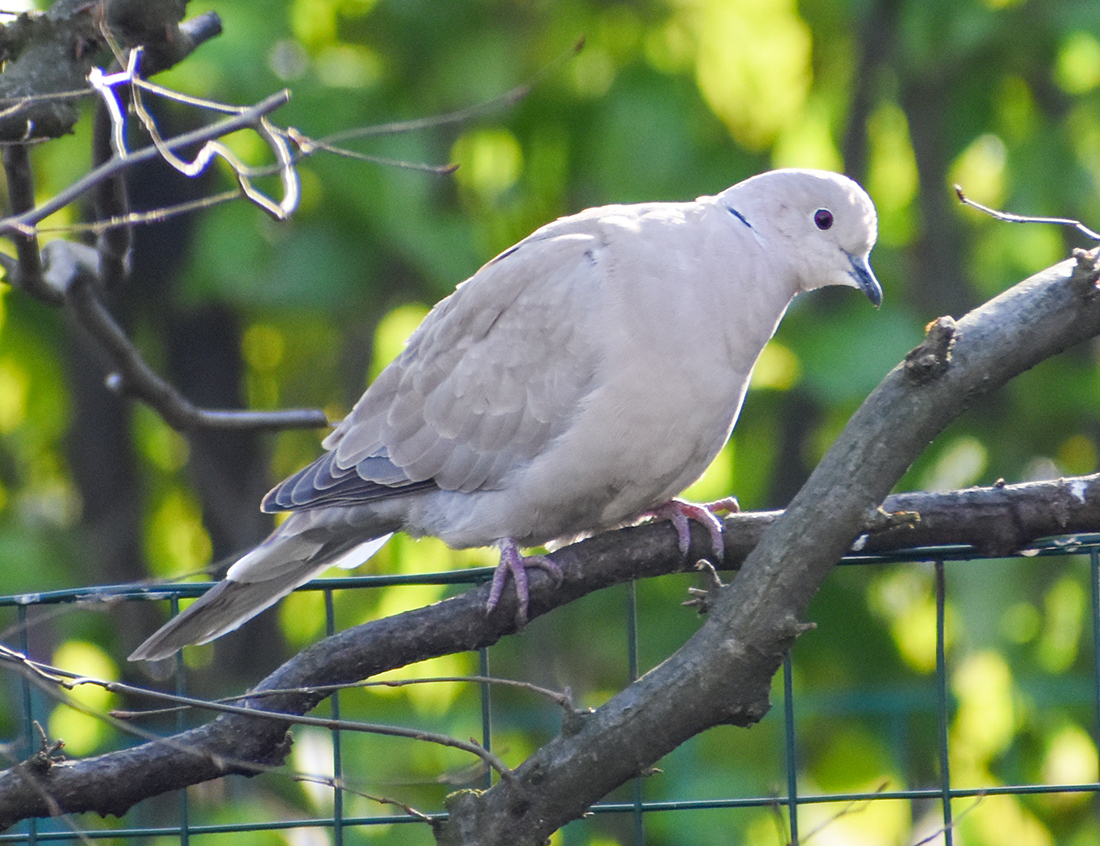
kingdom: Animalia
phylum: Chordata
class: Aves
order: Columbiformes
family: Columbidae
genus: Streptopelia
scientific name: Streptopelia decaocto
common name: Eurasian collared dove
